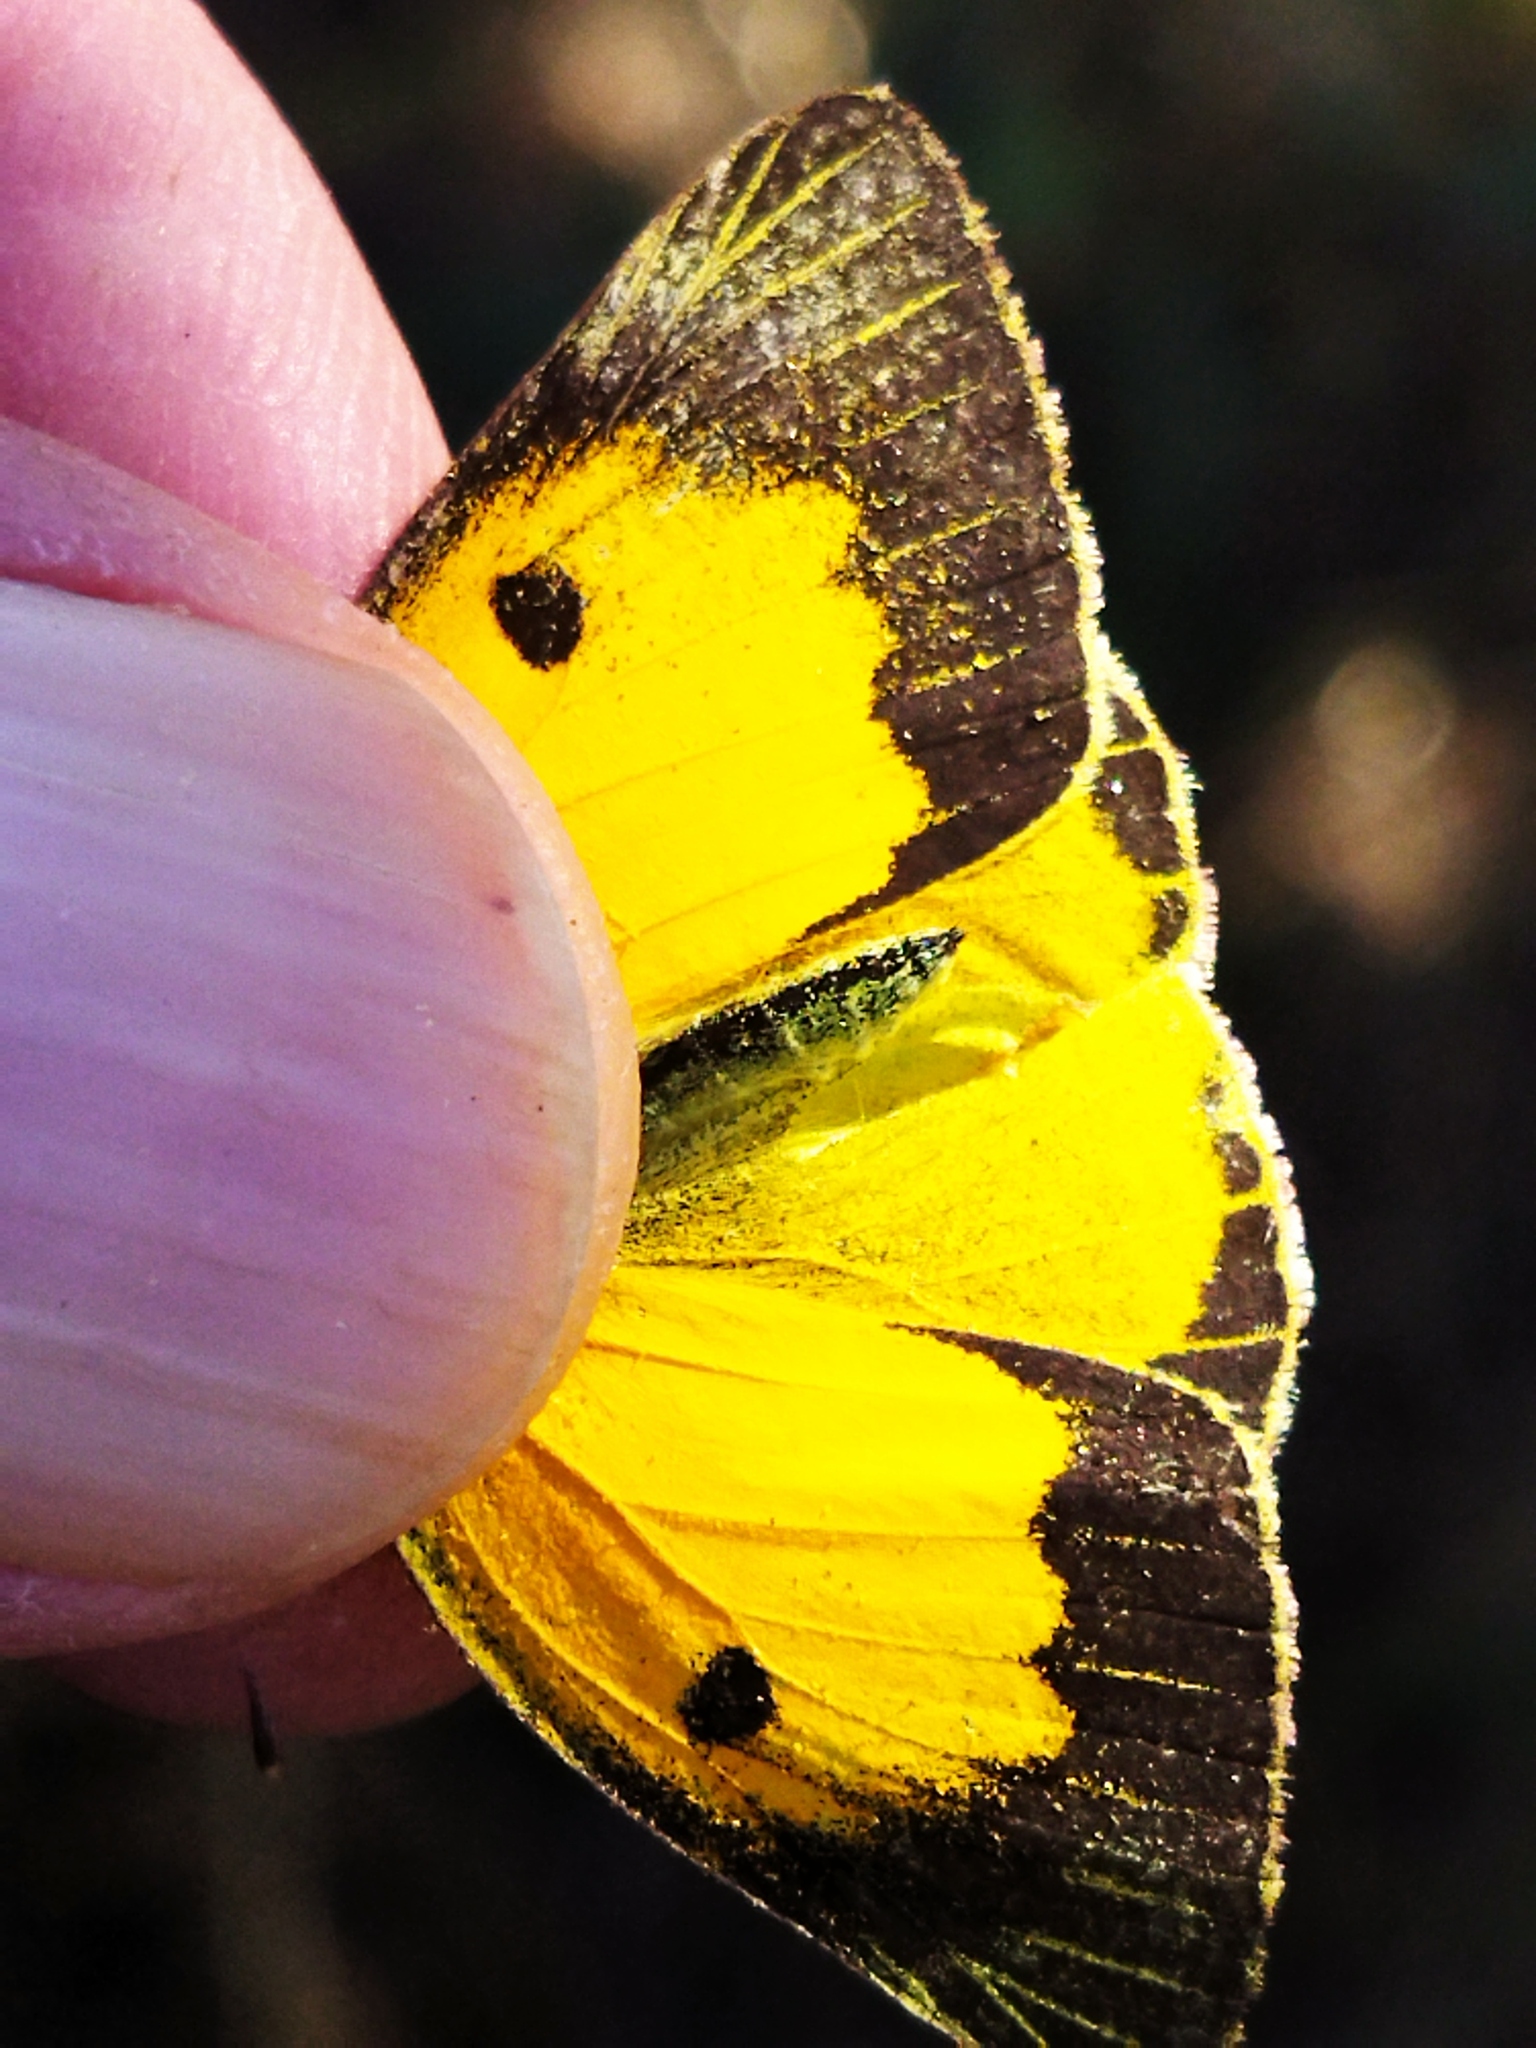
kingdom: Animalia
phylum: Arthropoda
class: Insecta
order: Lepidoptera
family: Pieridae
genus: Colias
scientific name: Colias croceus
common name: Clouded yellow
